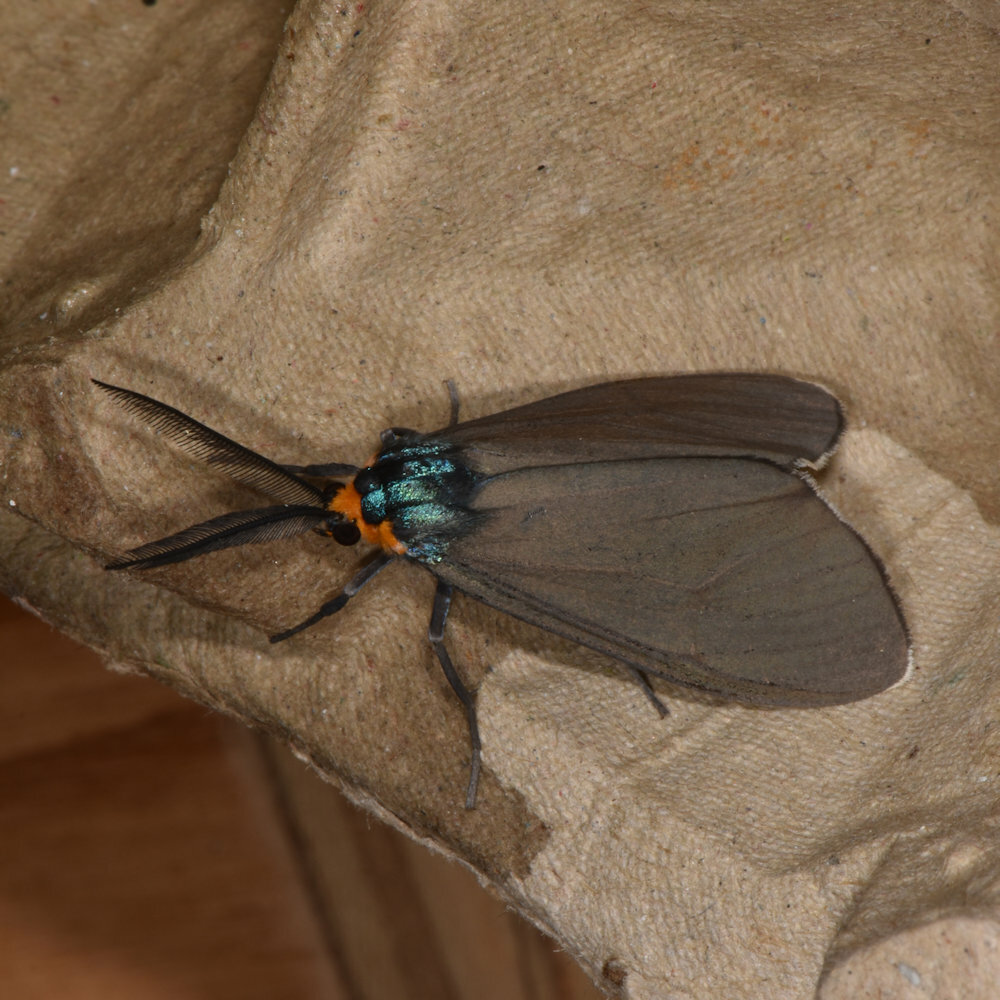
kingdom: Animalia
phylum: Arthropoda
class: Insecta
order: Lepidoptera
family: Erebidae
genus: Ctenucha
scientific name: Ctenucha virginica
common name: Virginia ctenucha moth
